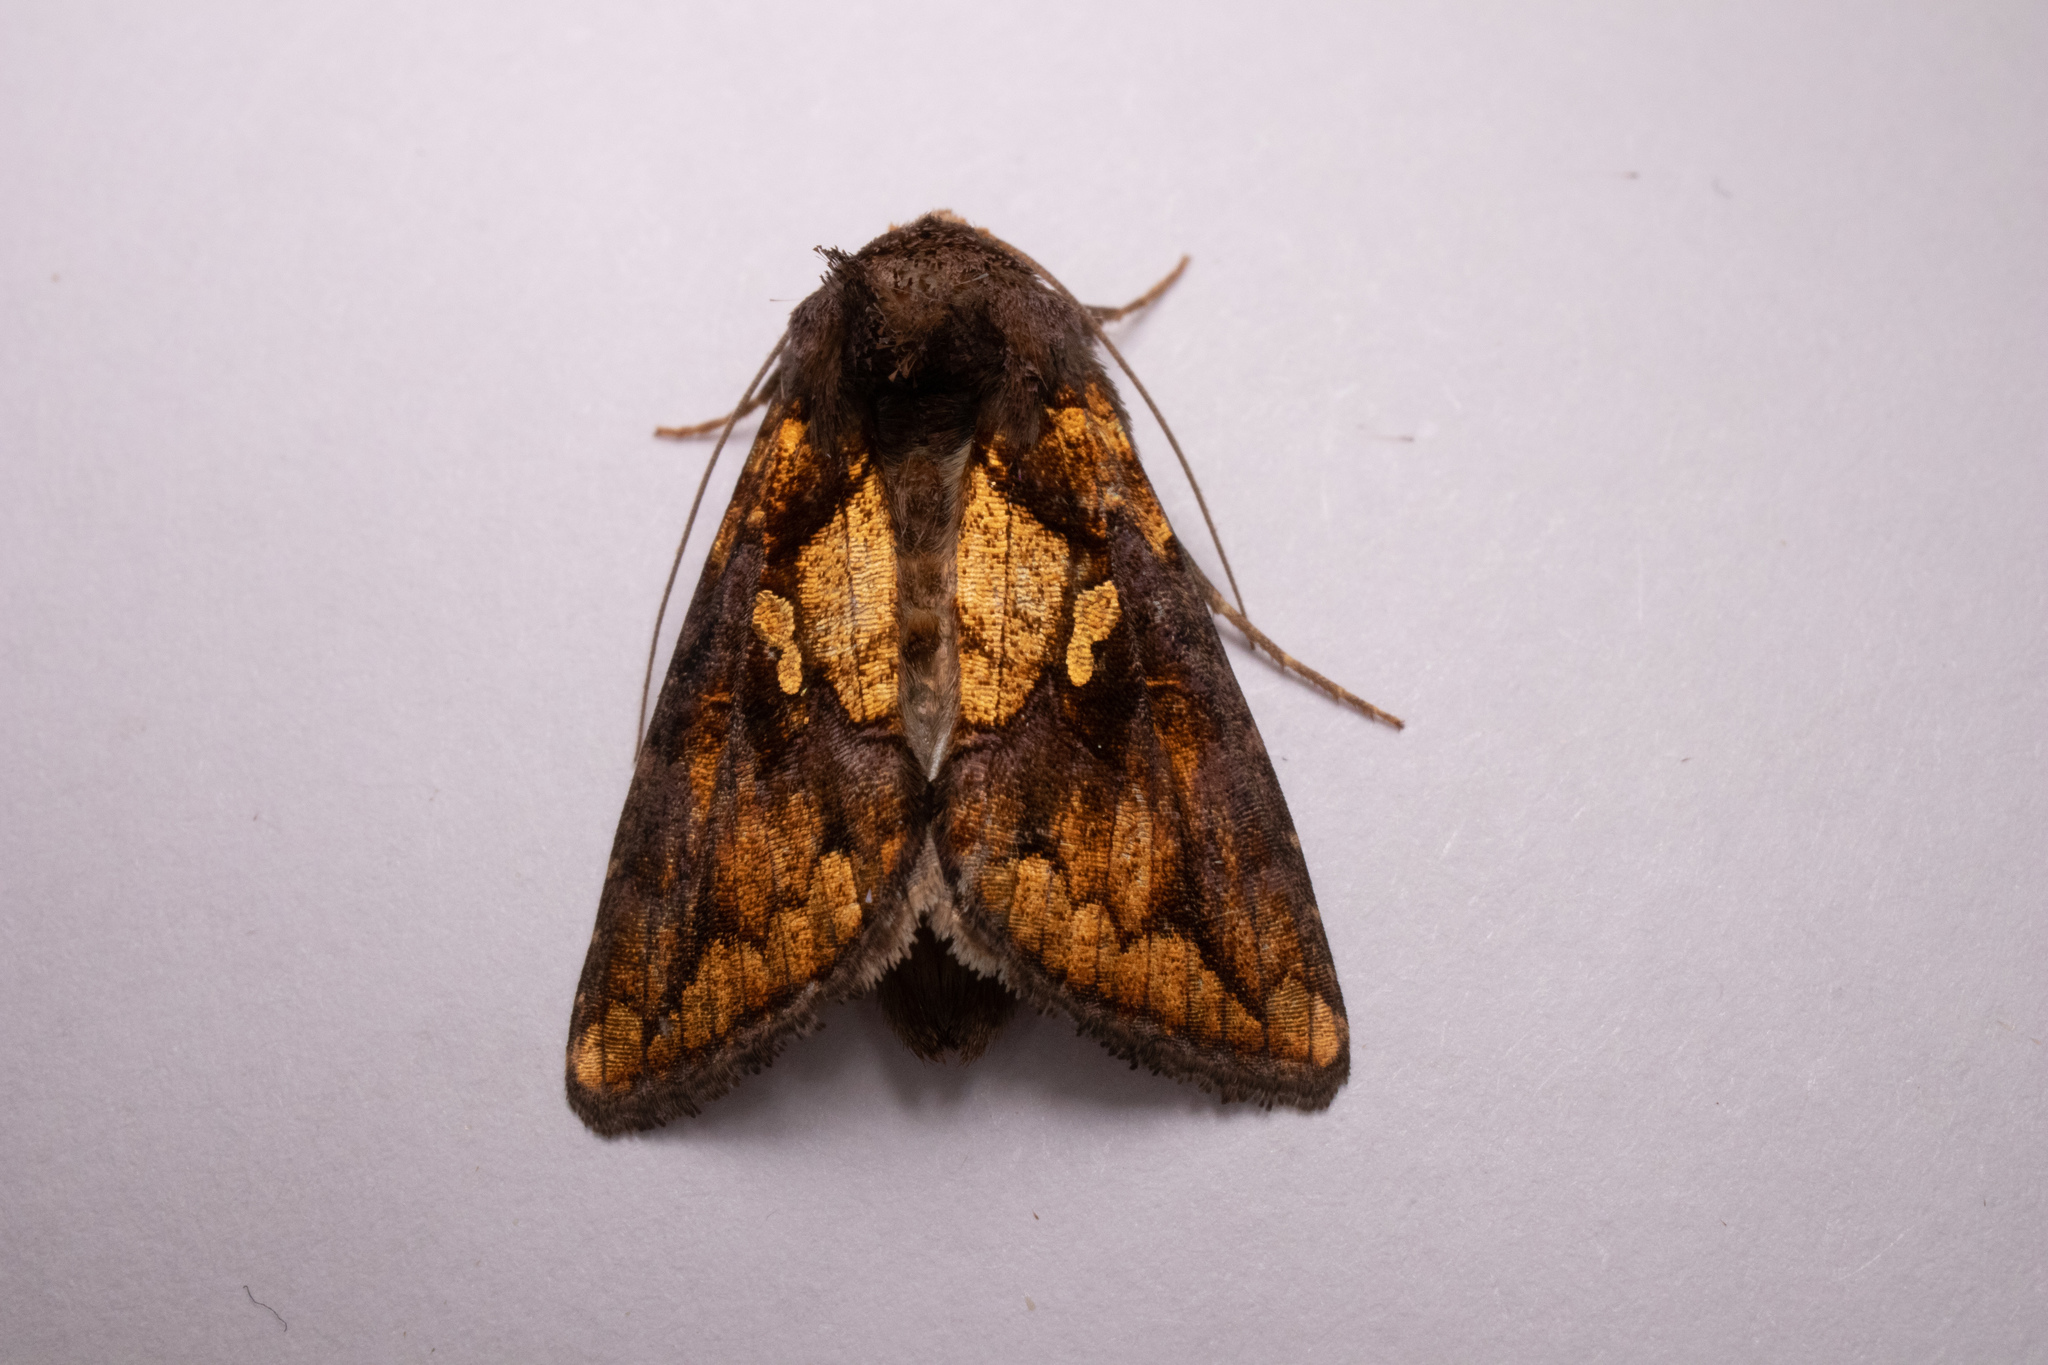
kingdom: Animalia
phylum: Arthropoda
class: Insecta
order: Lepidoptera
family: Noctuidae
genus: Argyrogramma
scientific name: Argyrogramma verruca
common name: Golden looper moth
